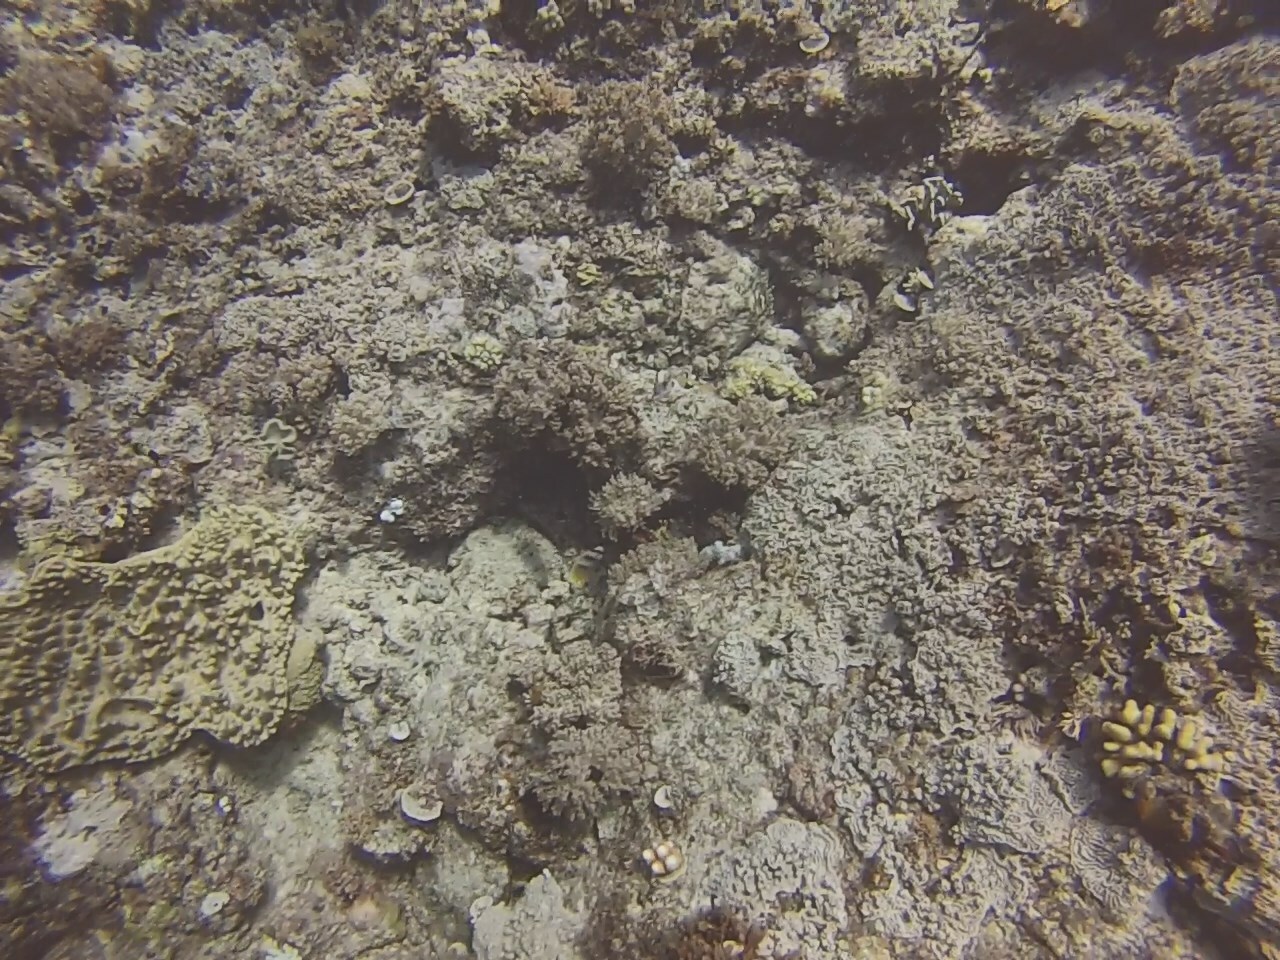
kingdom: Animalia
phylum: Chordata
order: Perciformes
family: Chaetodontidae
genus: Chaetodon
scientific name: Chaetodon kleinii
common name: Klein's butterflyfish
